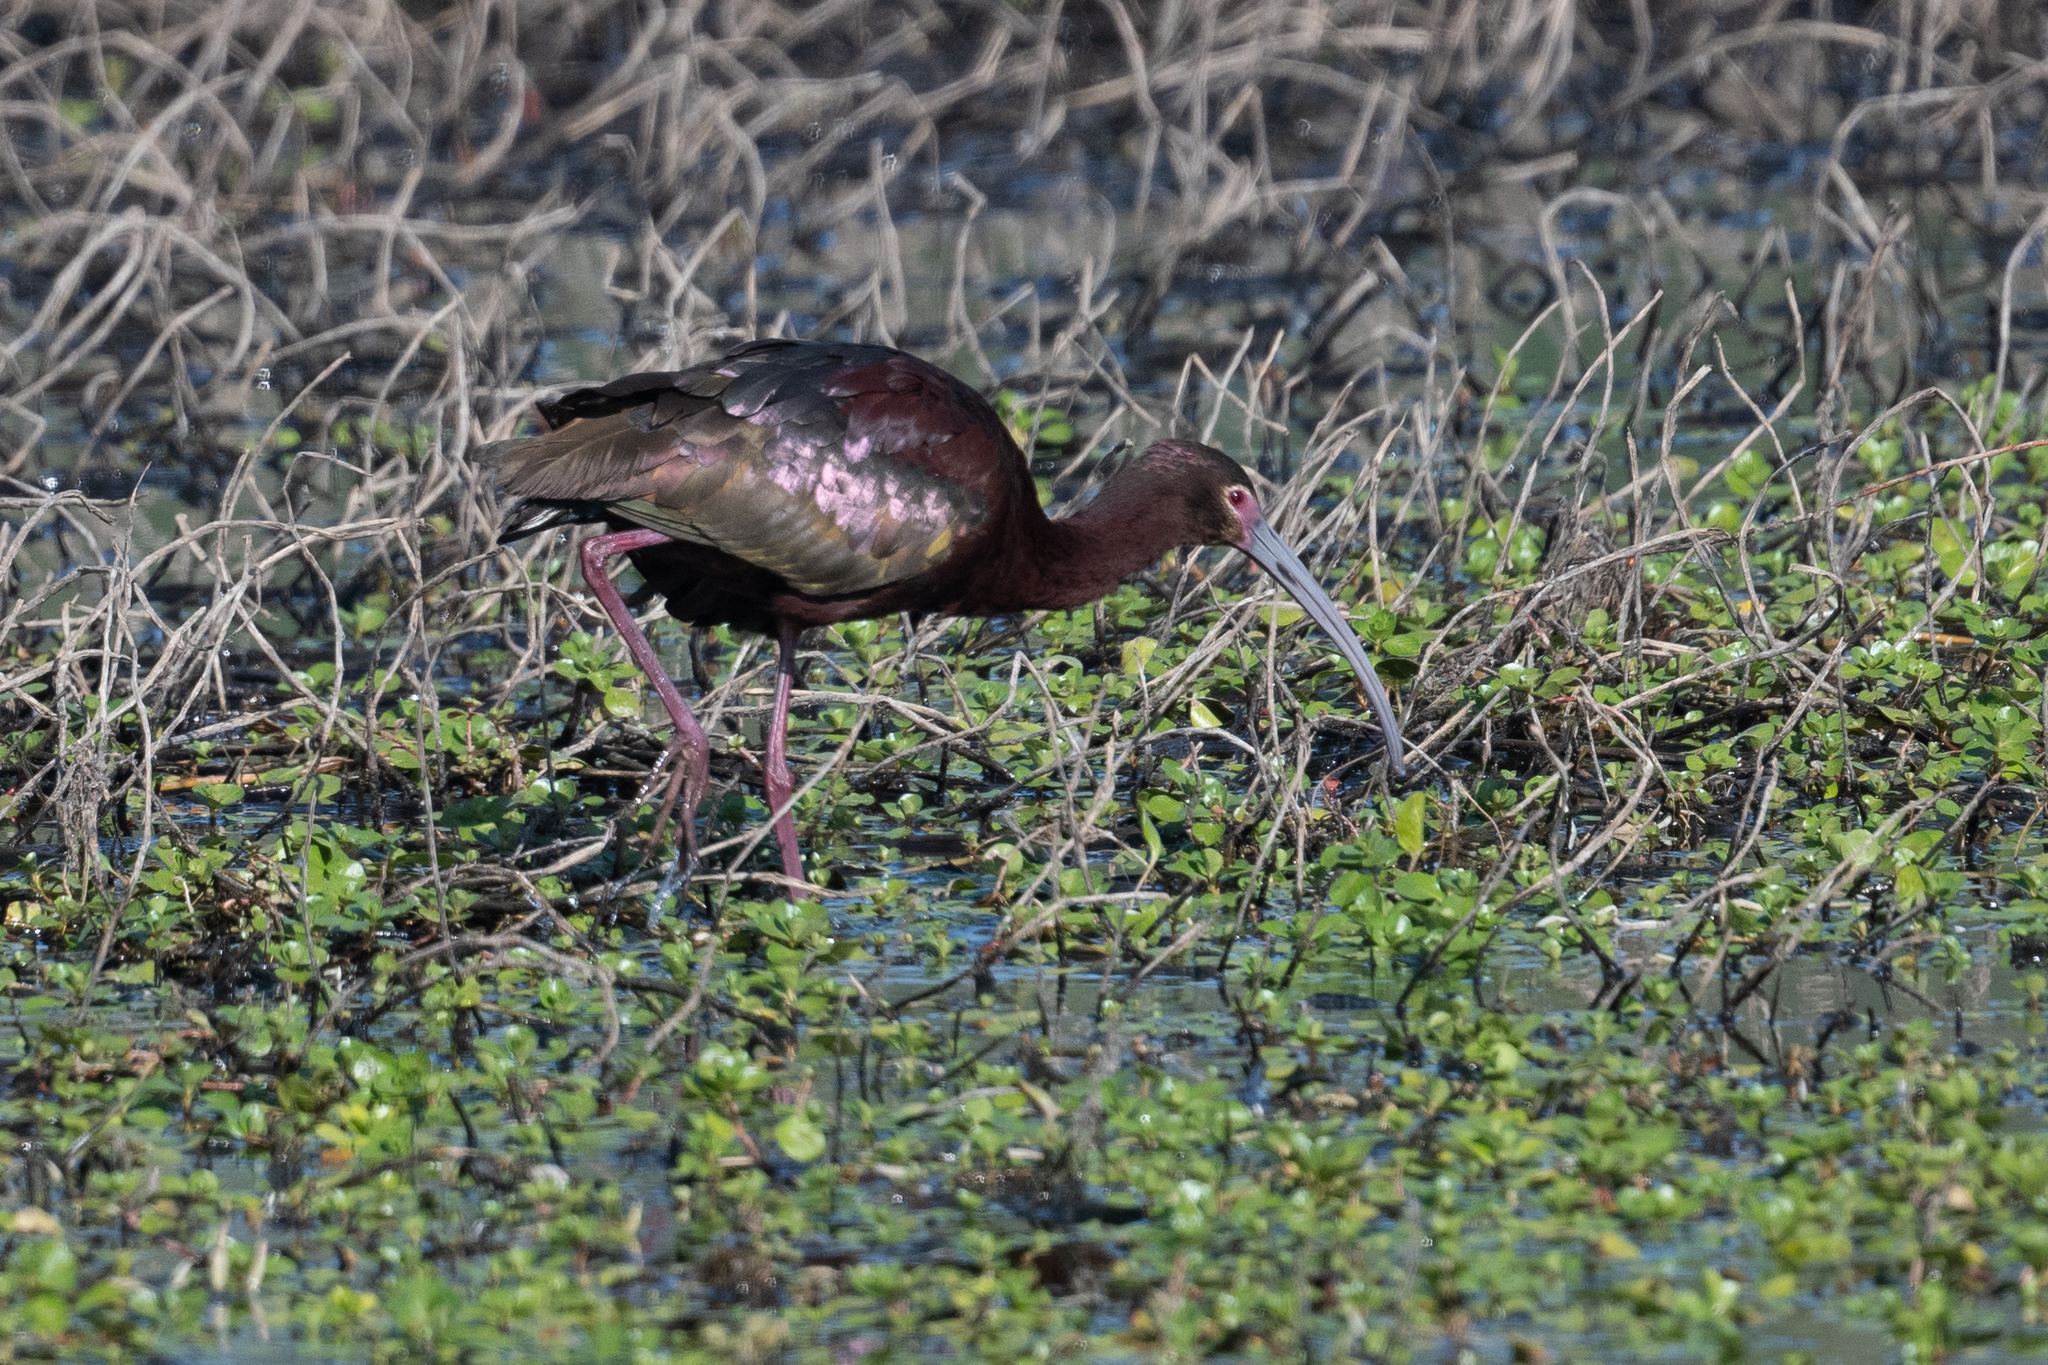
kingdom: Animalia
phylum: Chordata
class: Aves
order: Pelecaniformes
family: Threskiornithidae
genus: Plegadis
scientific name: Plegadis chihi
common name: White-faced ibis
